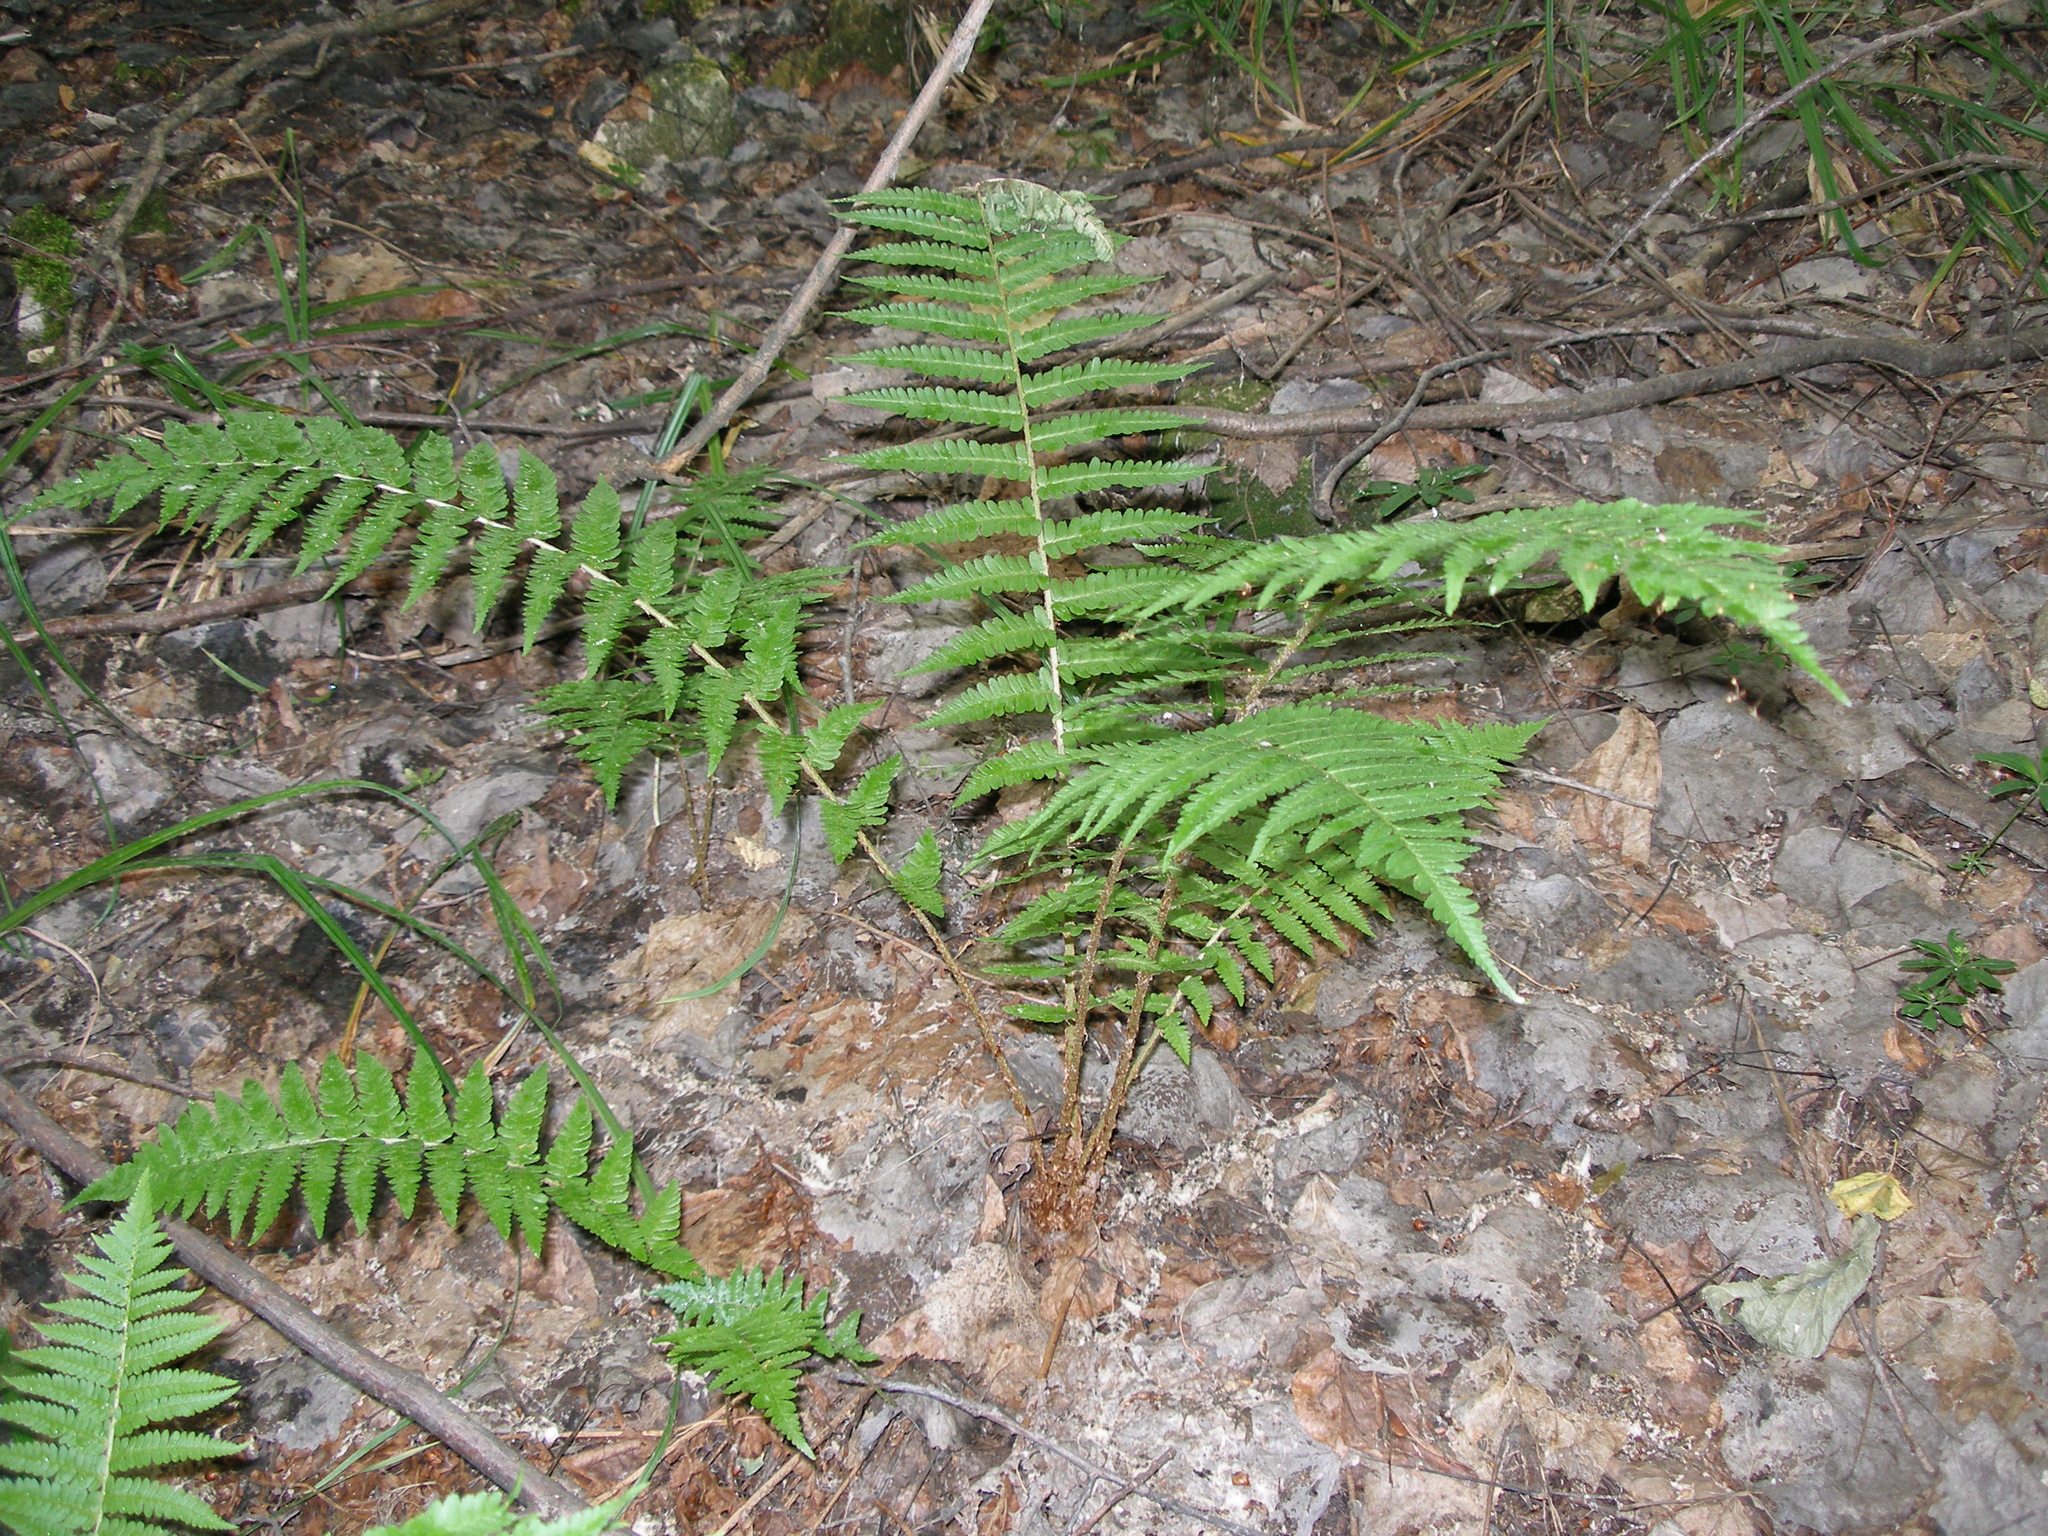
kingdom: Plantae
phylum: Tracheophyta
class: Polypodiopsida
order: Polypodiales
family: Dryopteridaceae
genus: Dryopteris
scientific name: Dryopteris filix-mas
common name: Male fern
